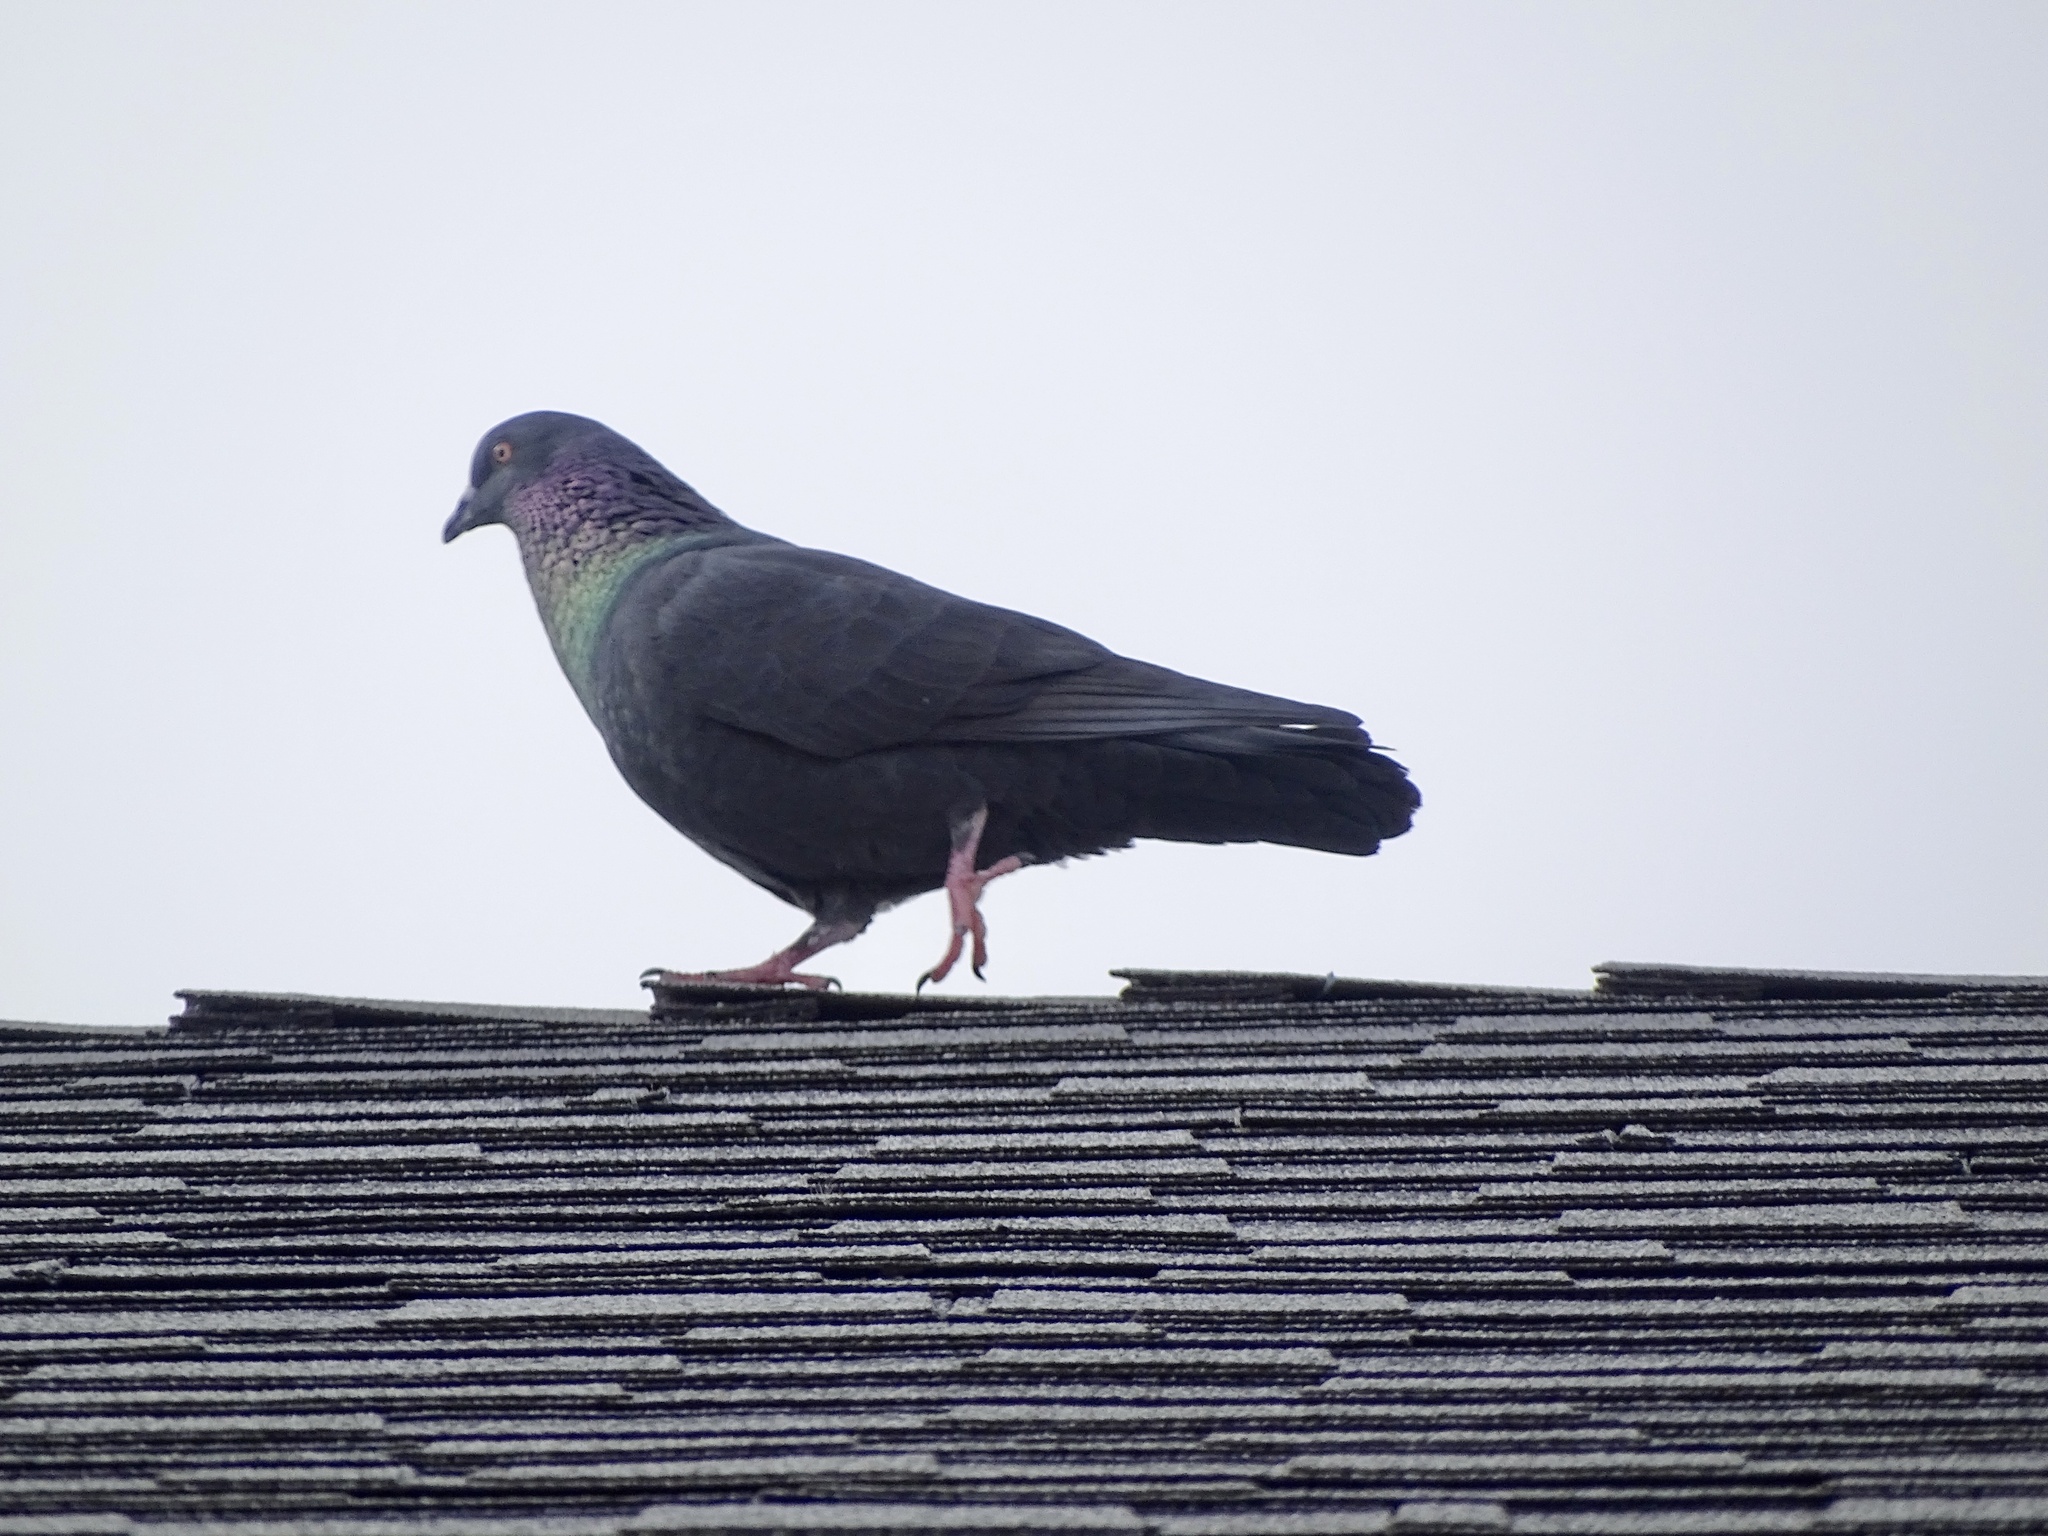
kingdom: Animalia
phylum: Chordata
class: Aves
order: Columbiformes
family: Columbidae
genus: Columba
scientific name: Columba livia
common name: Rock pigeon
